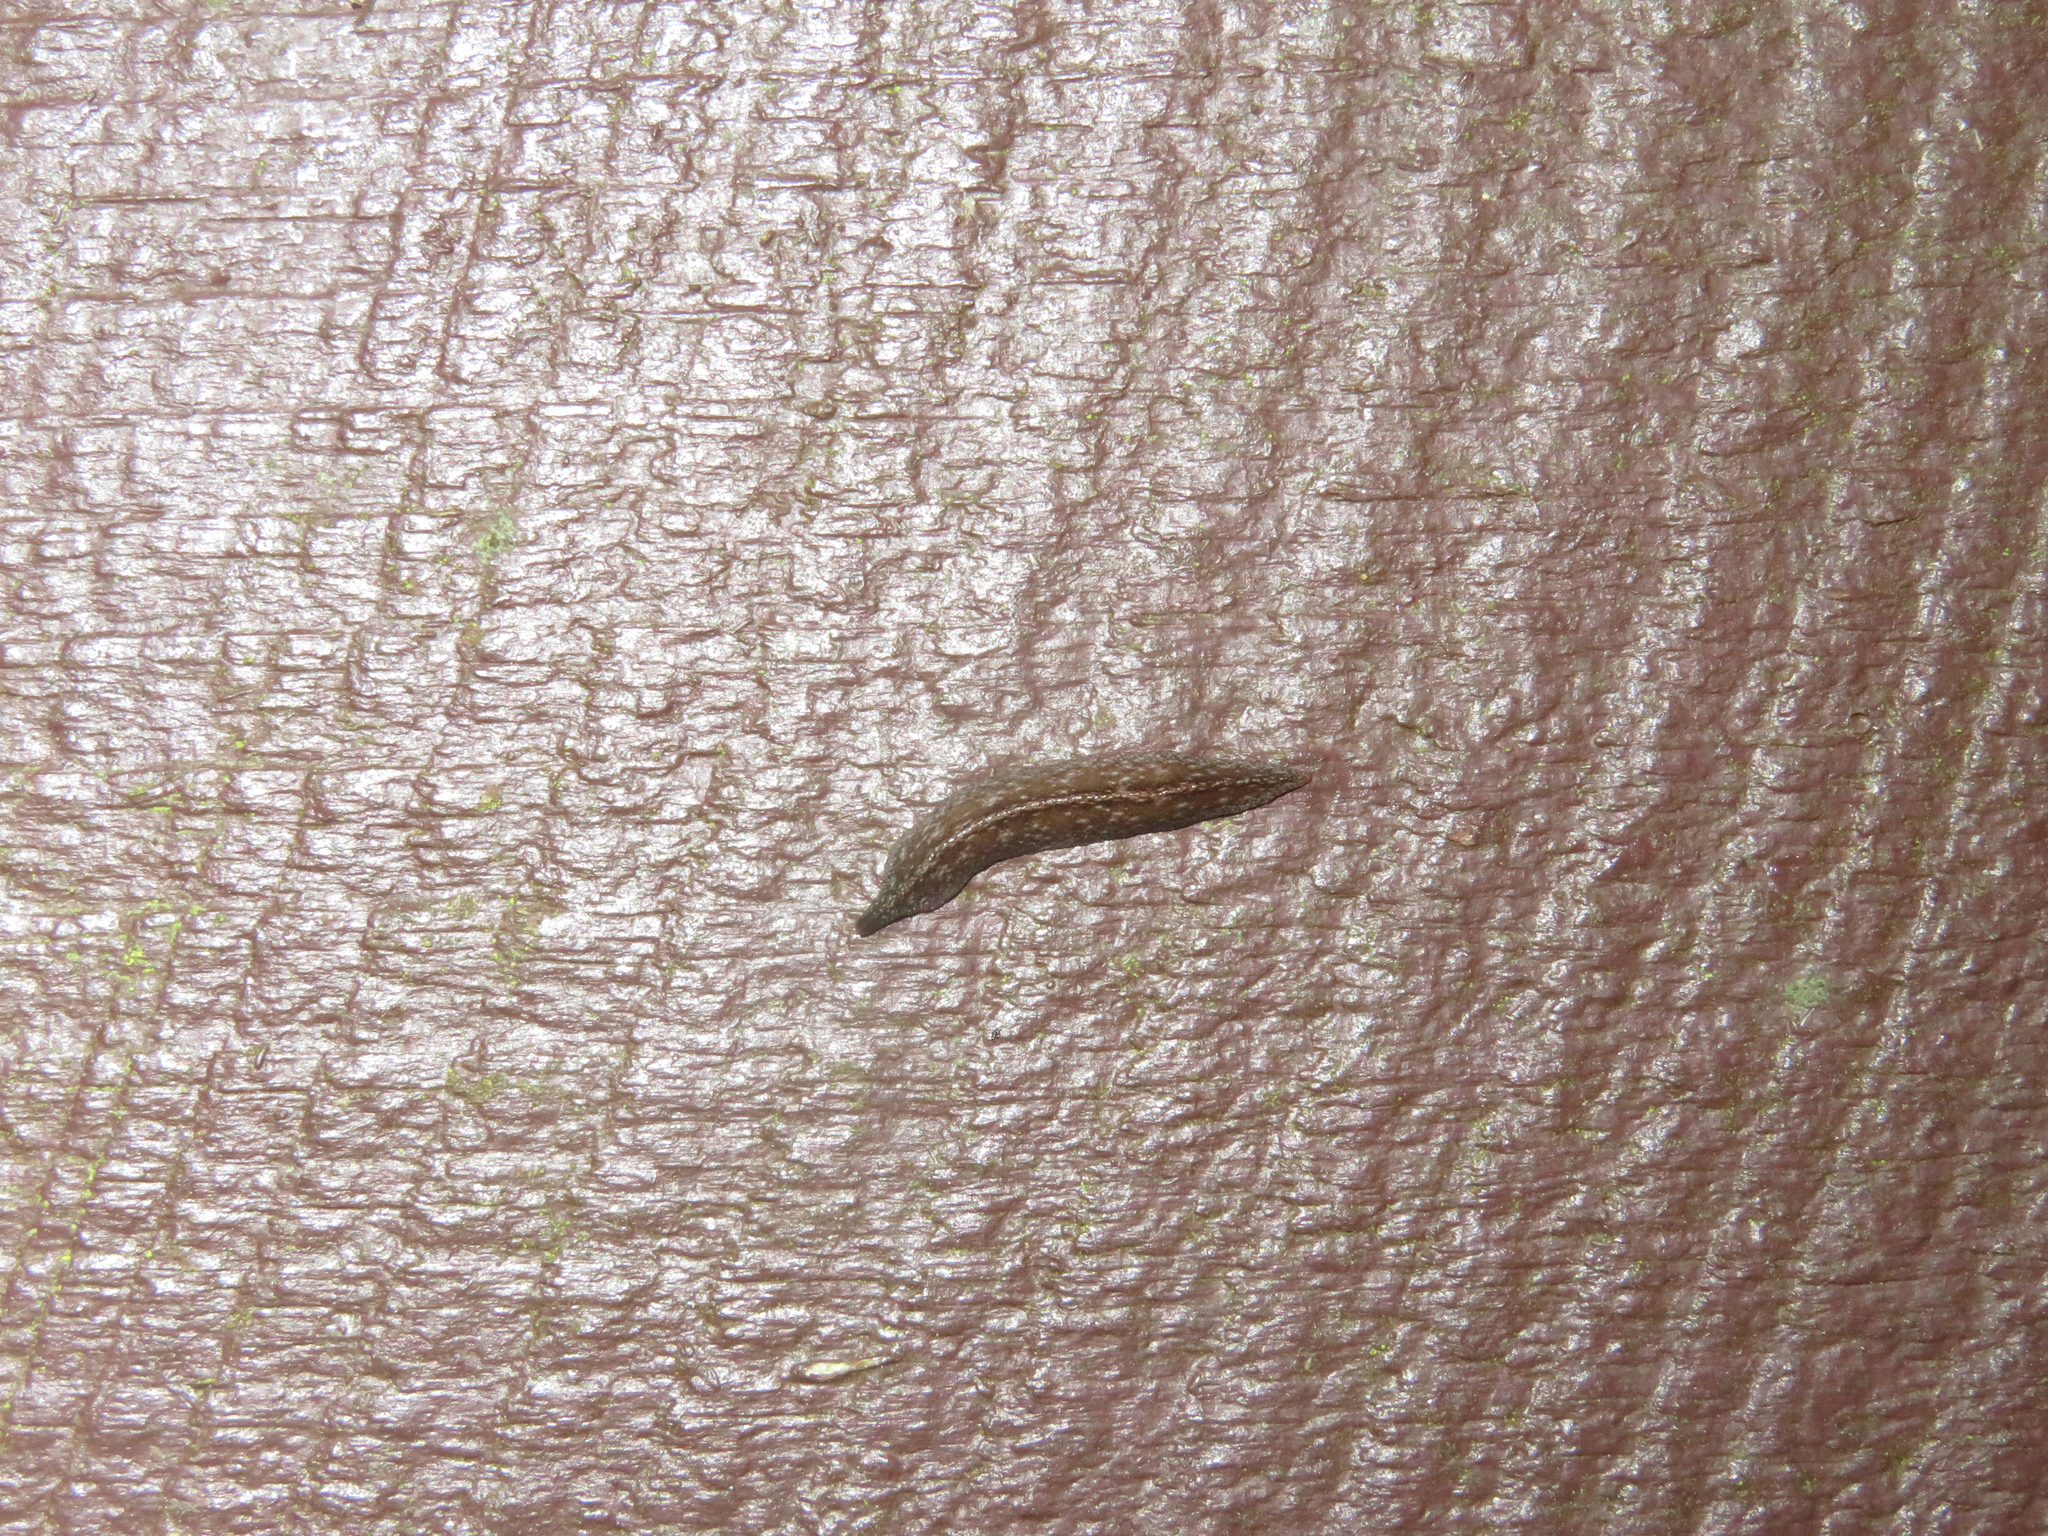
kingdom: Animalia
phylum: Platyhelminthes
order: Tricladida
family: Geoplanidae
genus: Australopacifica
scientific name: Australopacifica laingii
